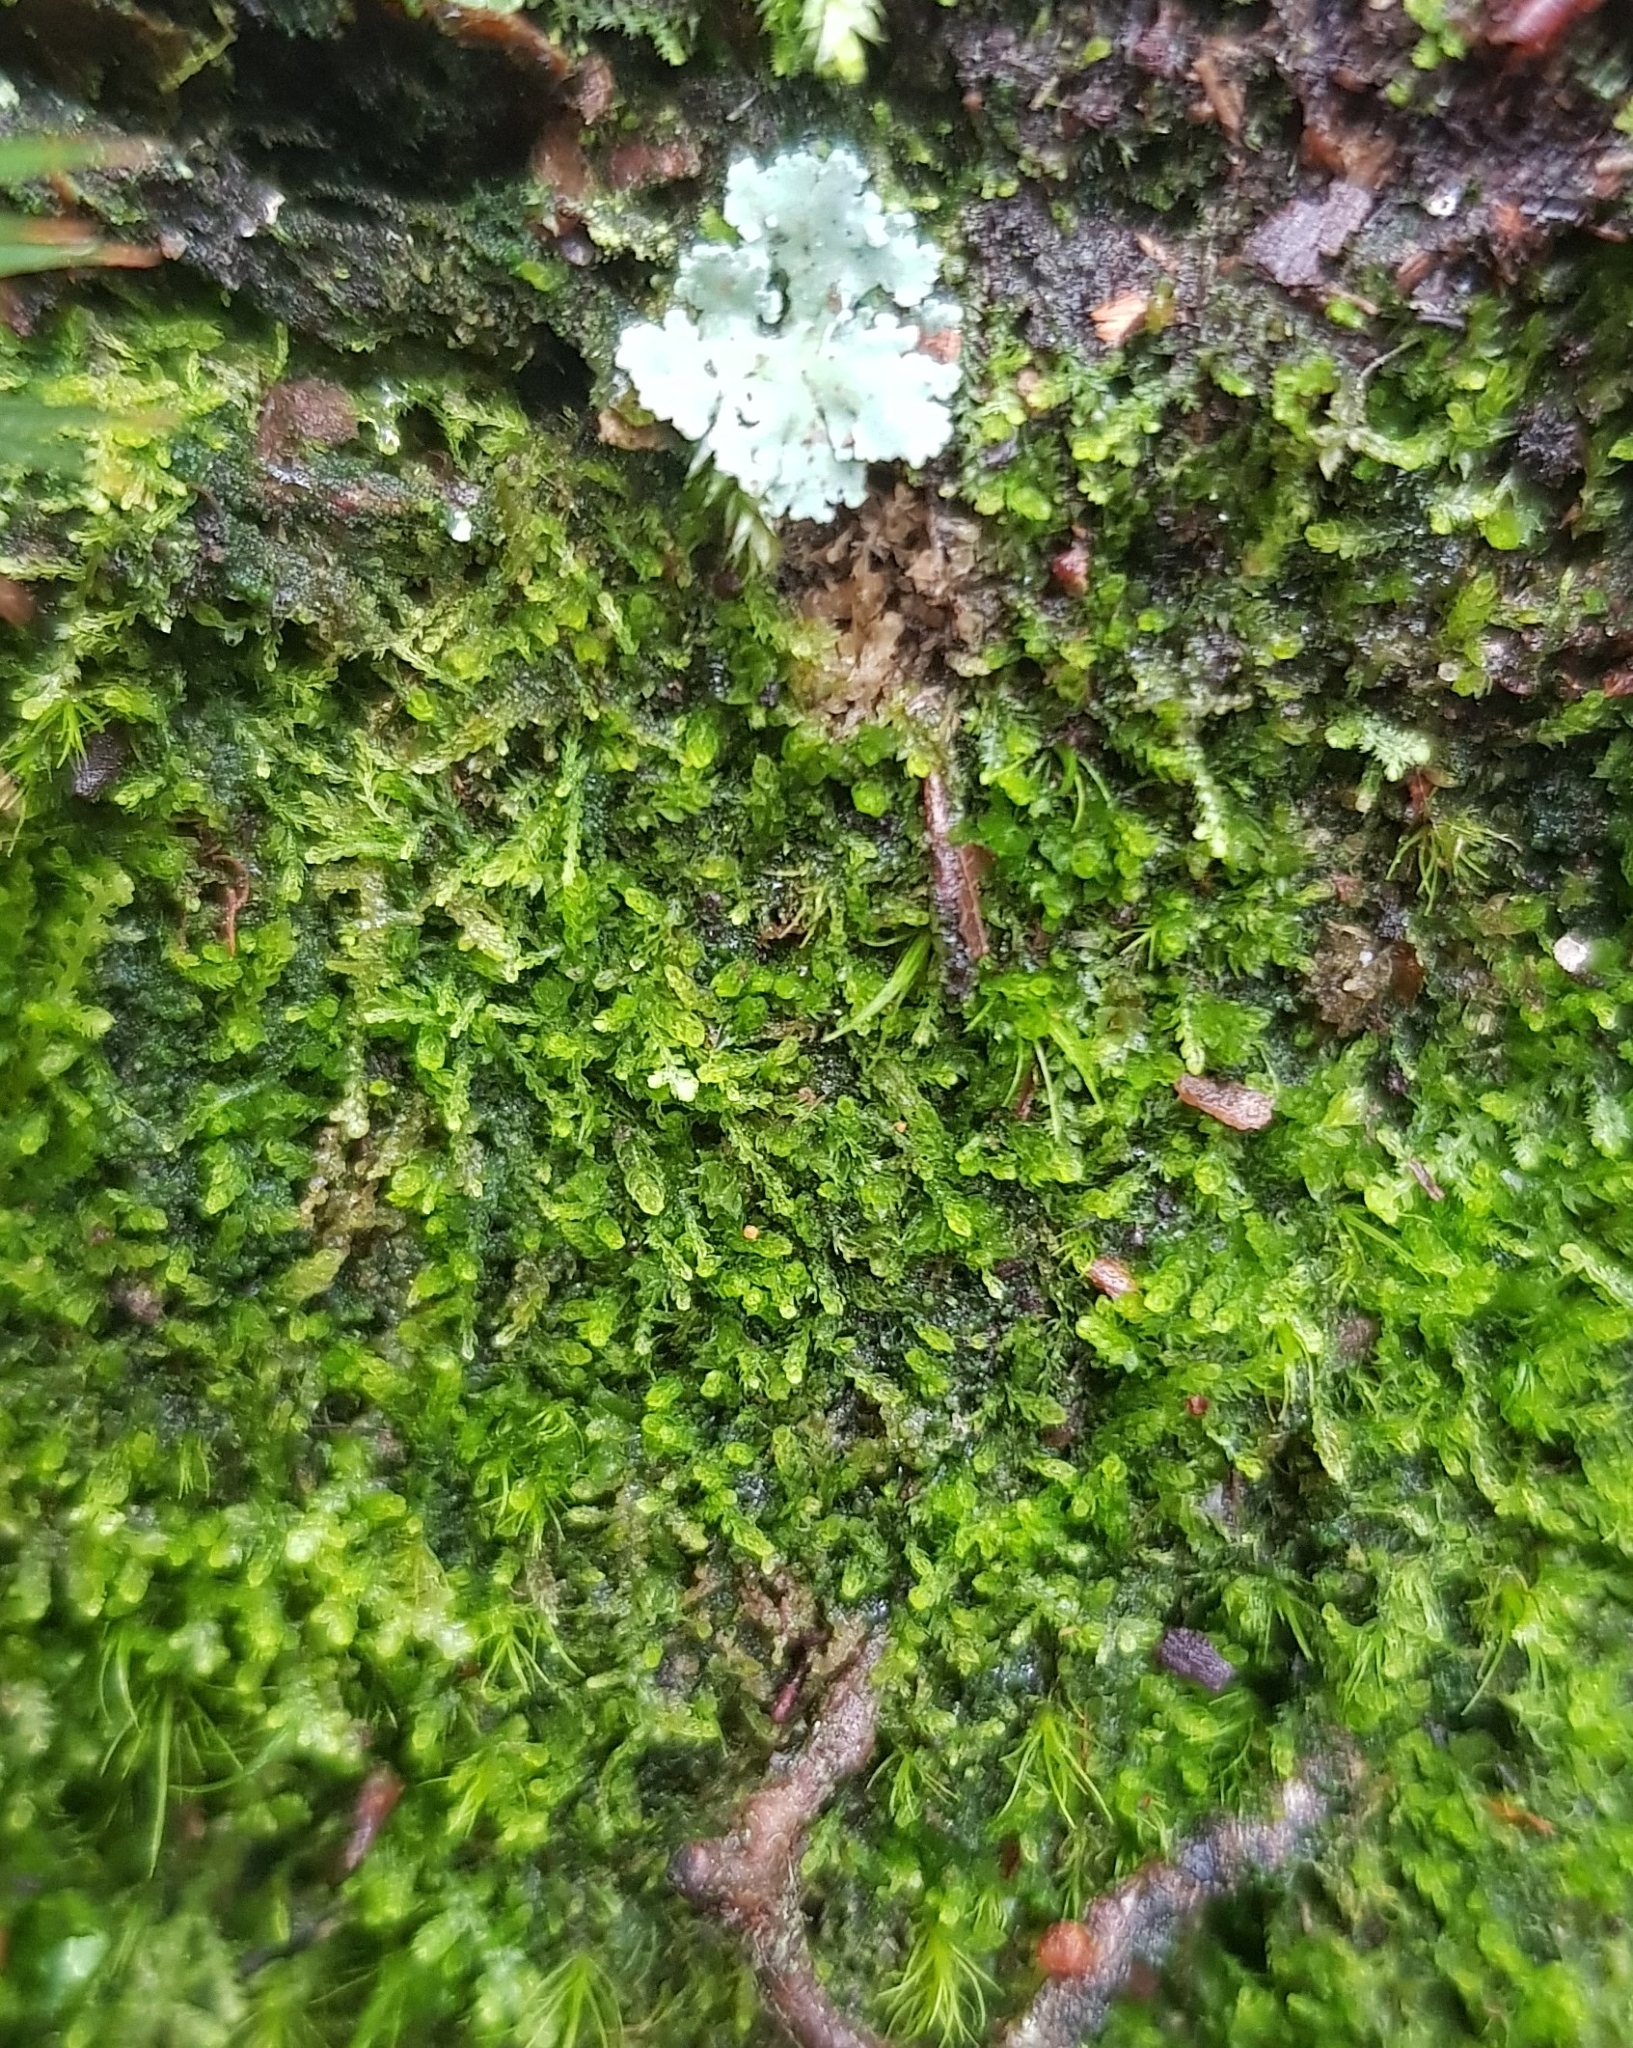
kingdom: Plantae
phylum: Marchantiophyta
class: Jungermanniopsida
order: Jungermanniales
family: Cephaloziaceae
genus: Cephalozia
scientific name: Cephalozia bicuspidata
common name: Two-horned pincerwort
